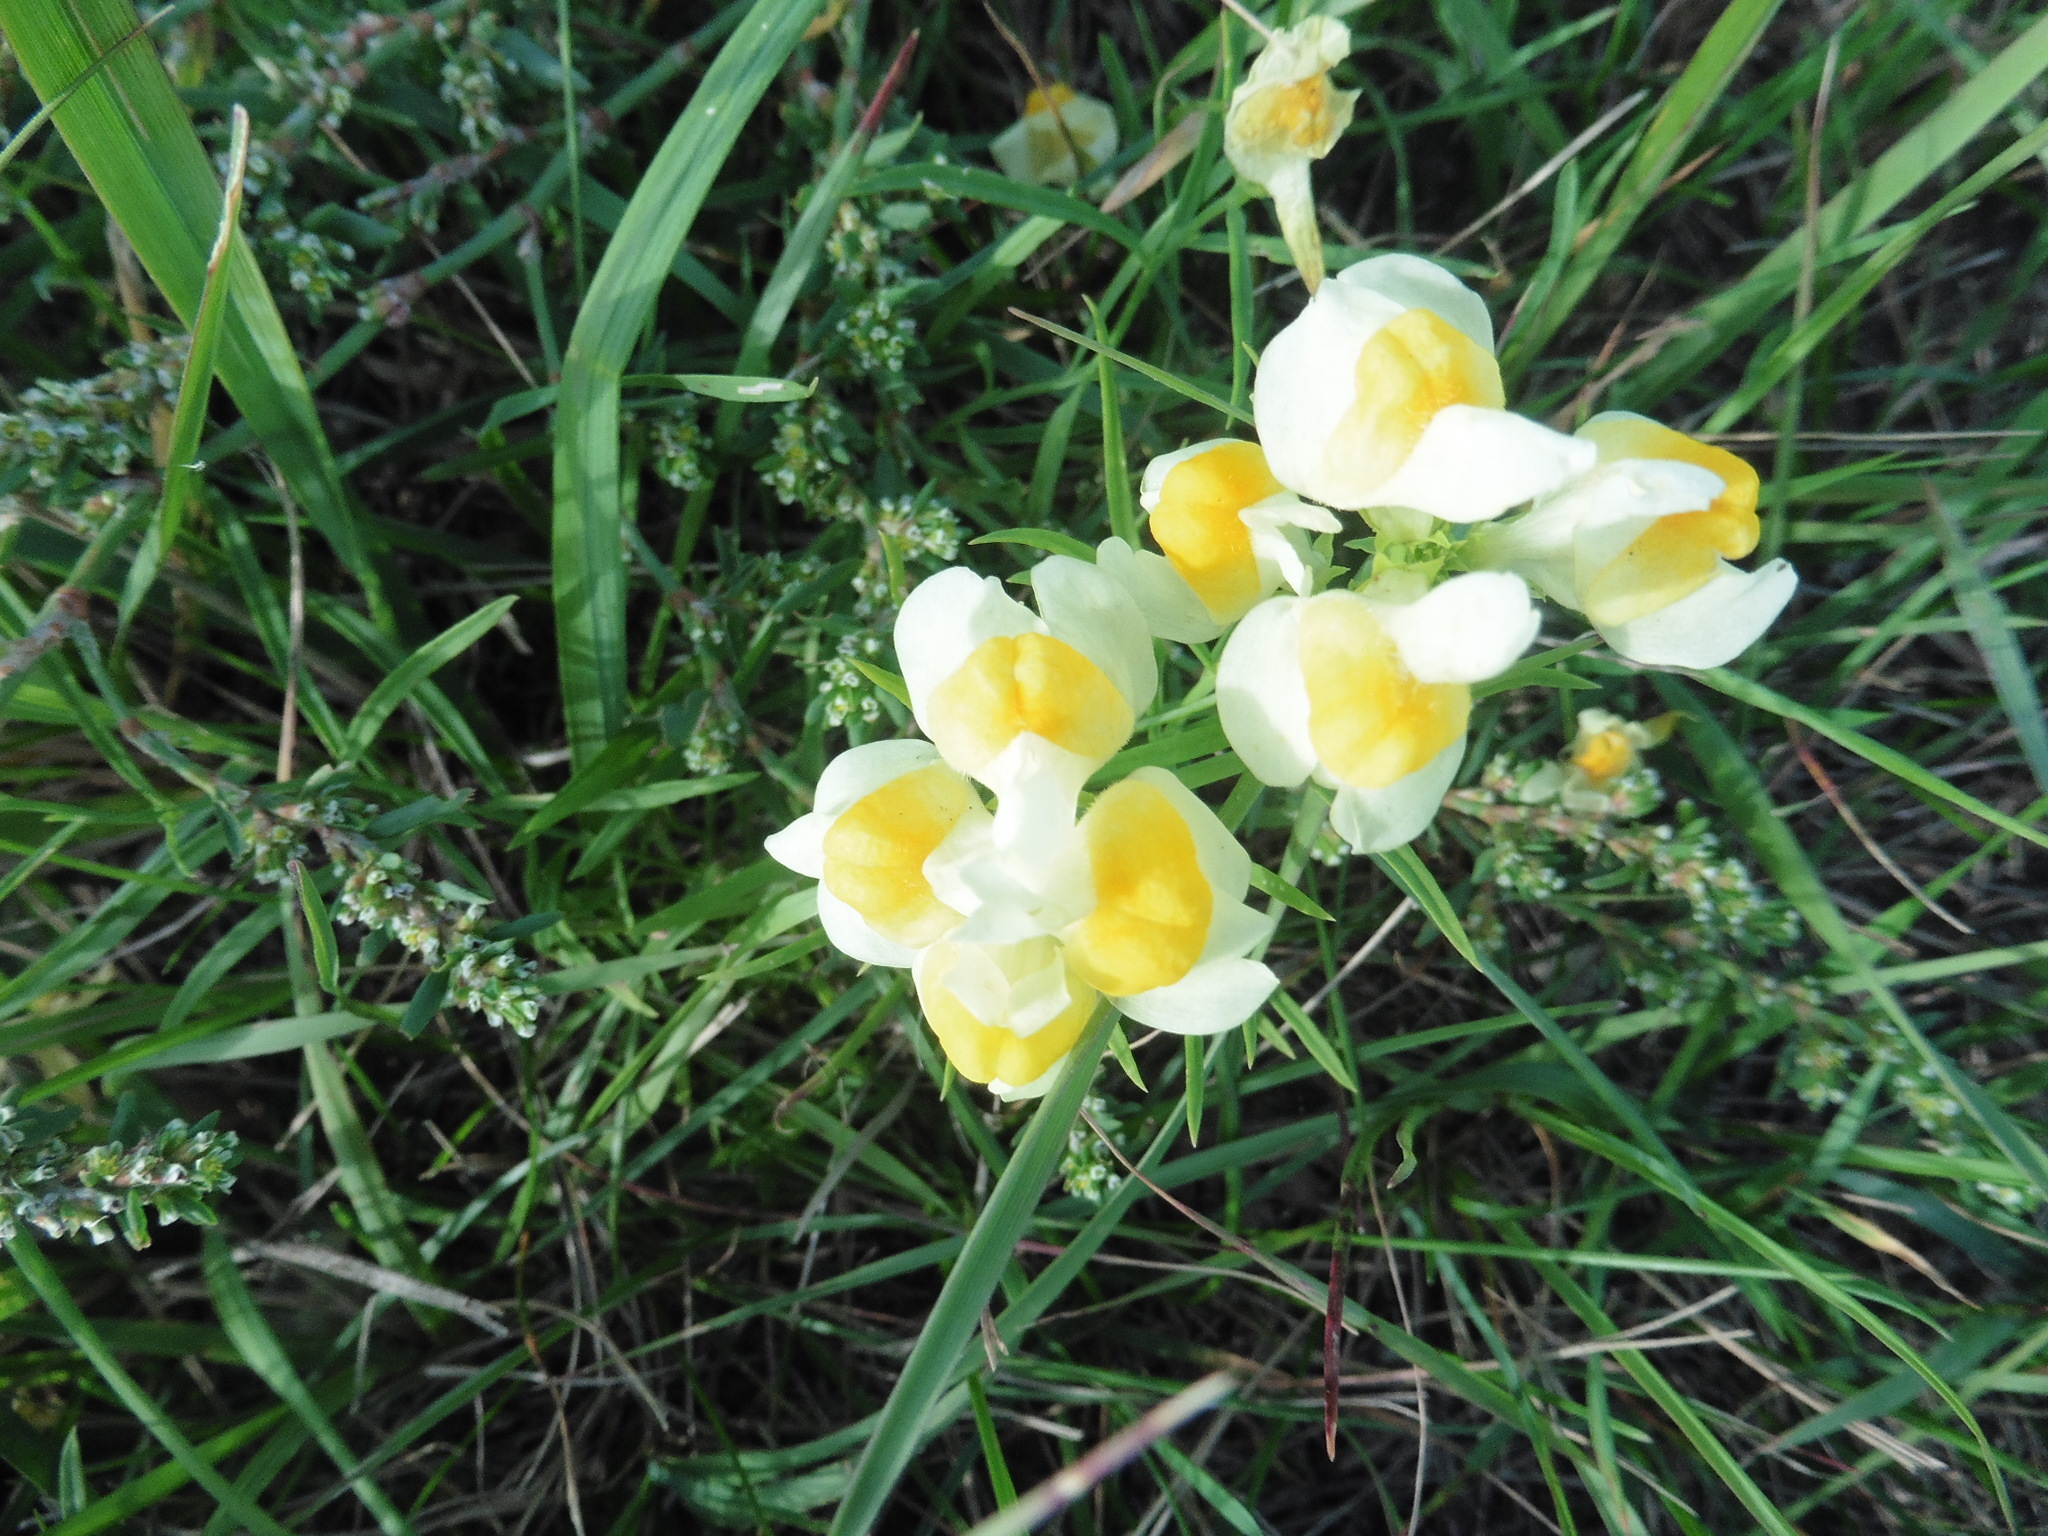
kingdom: Plantae
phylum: Tracheophyta
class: Magnoliopsida
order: Lamiales
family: Plantaginaceae
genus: Linaria
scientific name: Linaria vulgaris
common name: Butter and eggs
